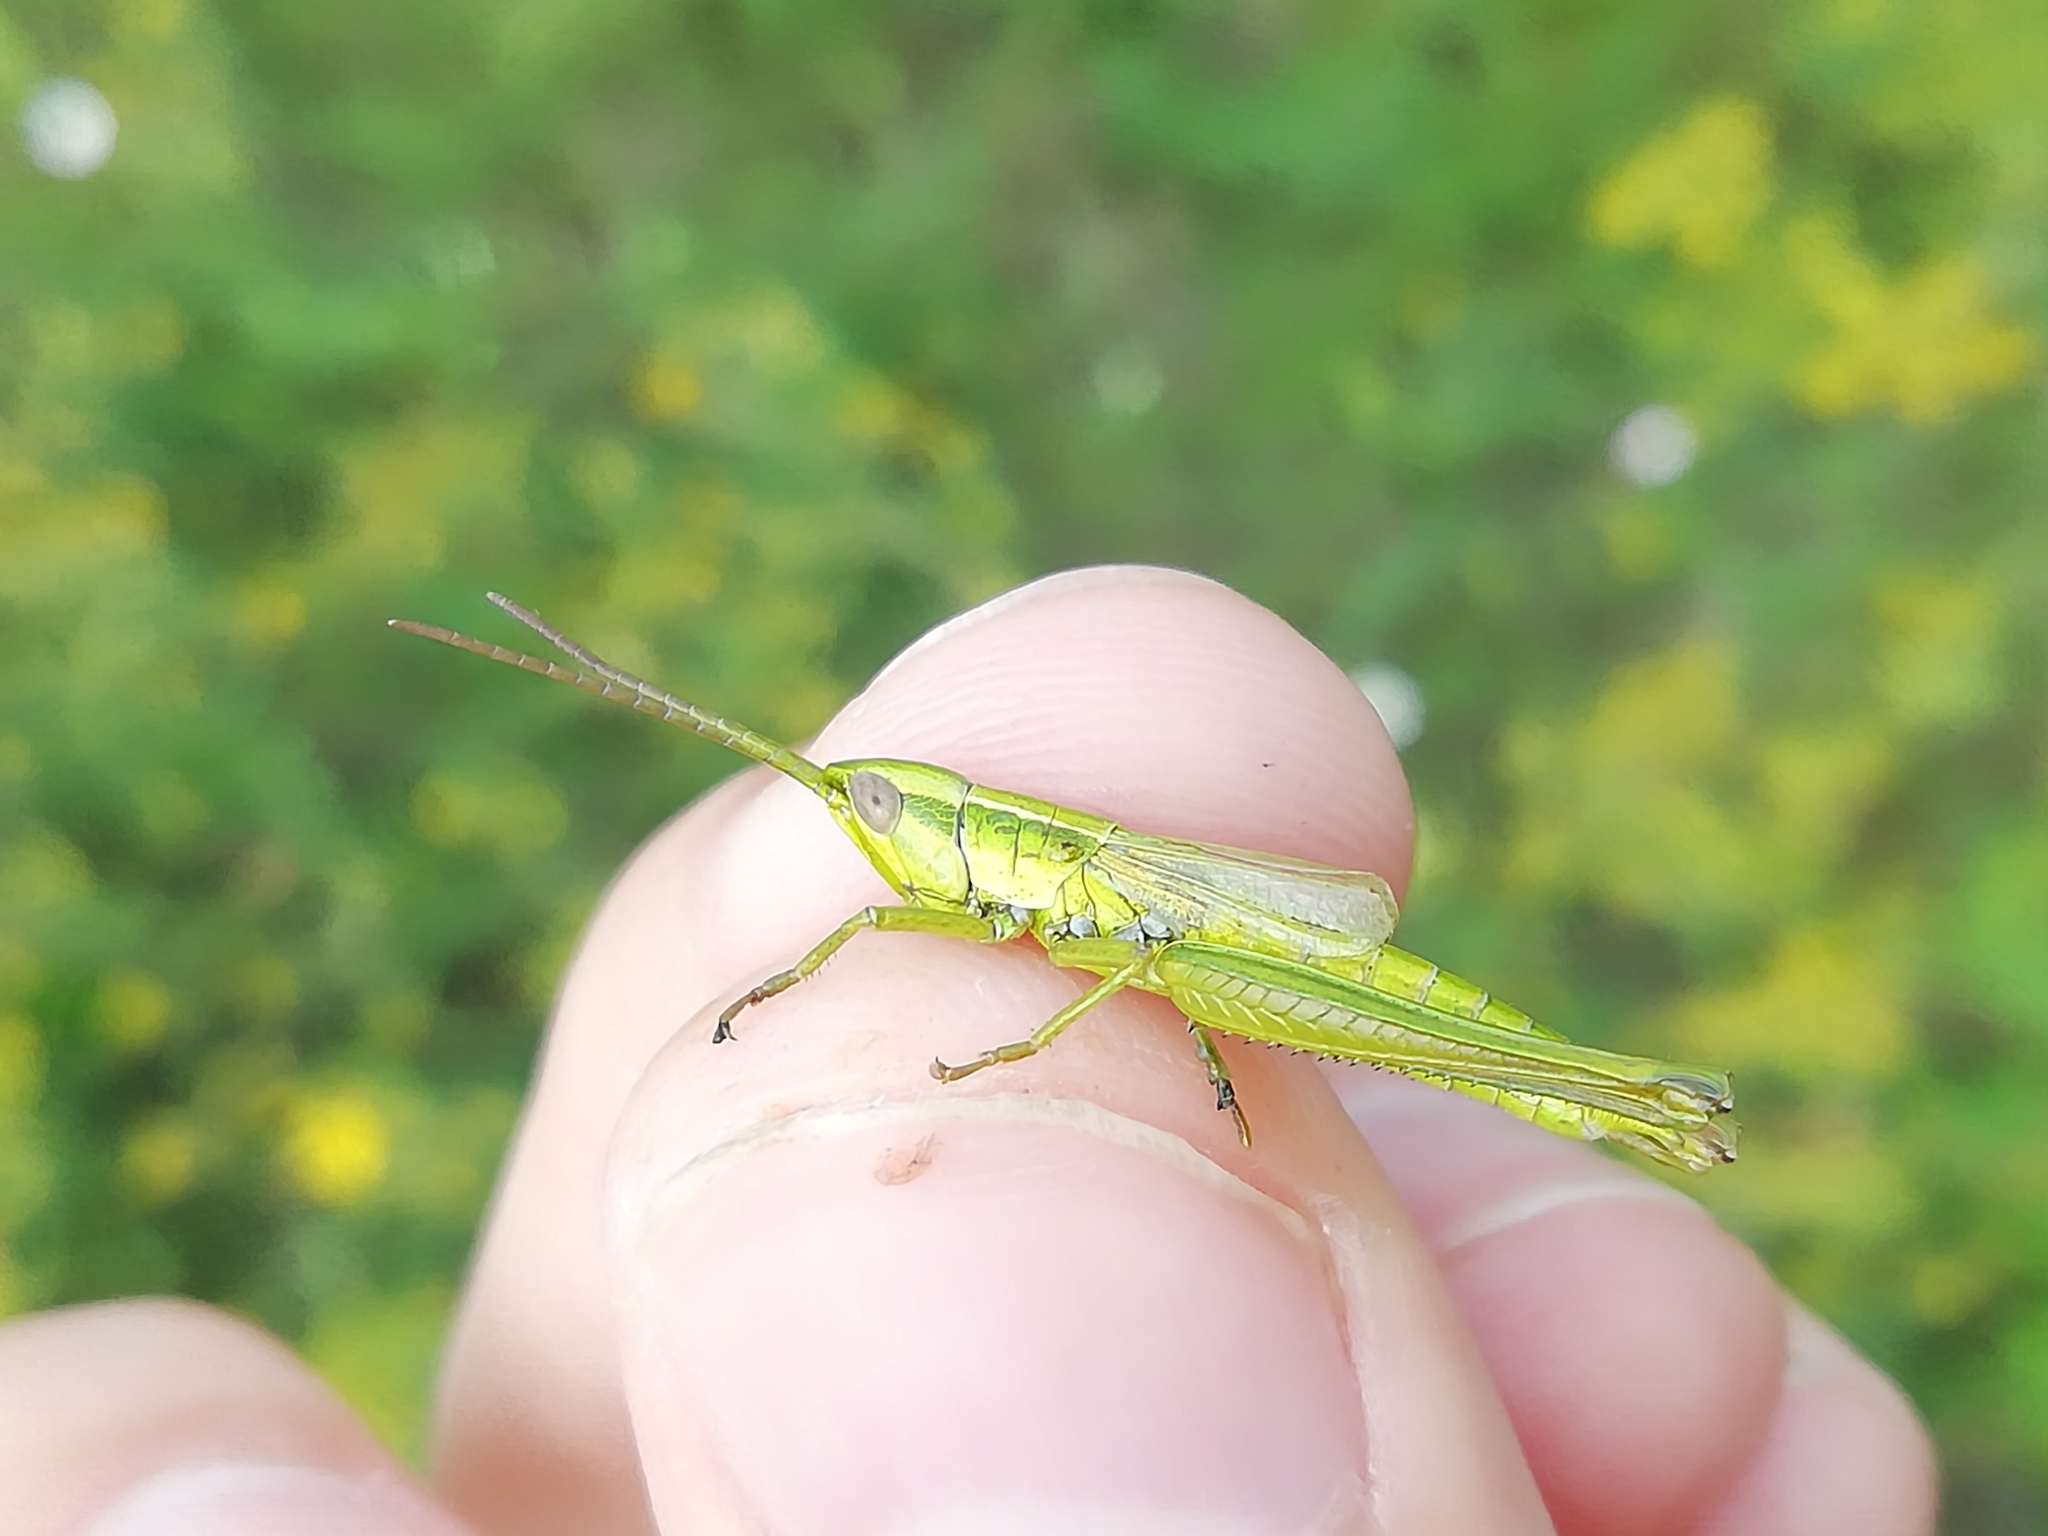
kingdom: Animalia
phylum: Arthropoda
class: Insecta
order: Orthoptera
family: Acrididae
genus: Euthystira
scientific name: Euthystira brachyptera
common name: Small gold grasshopper
